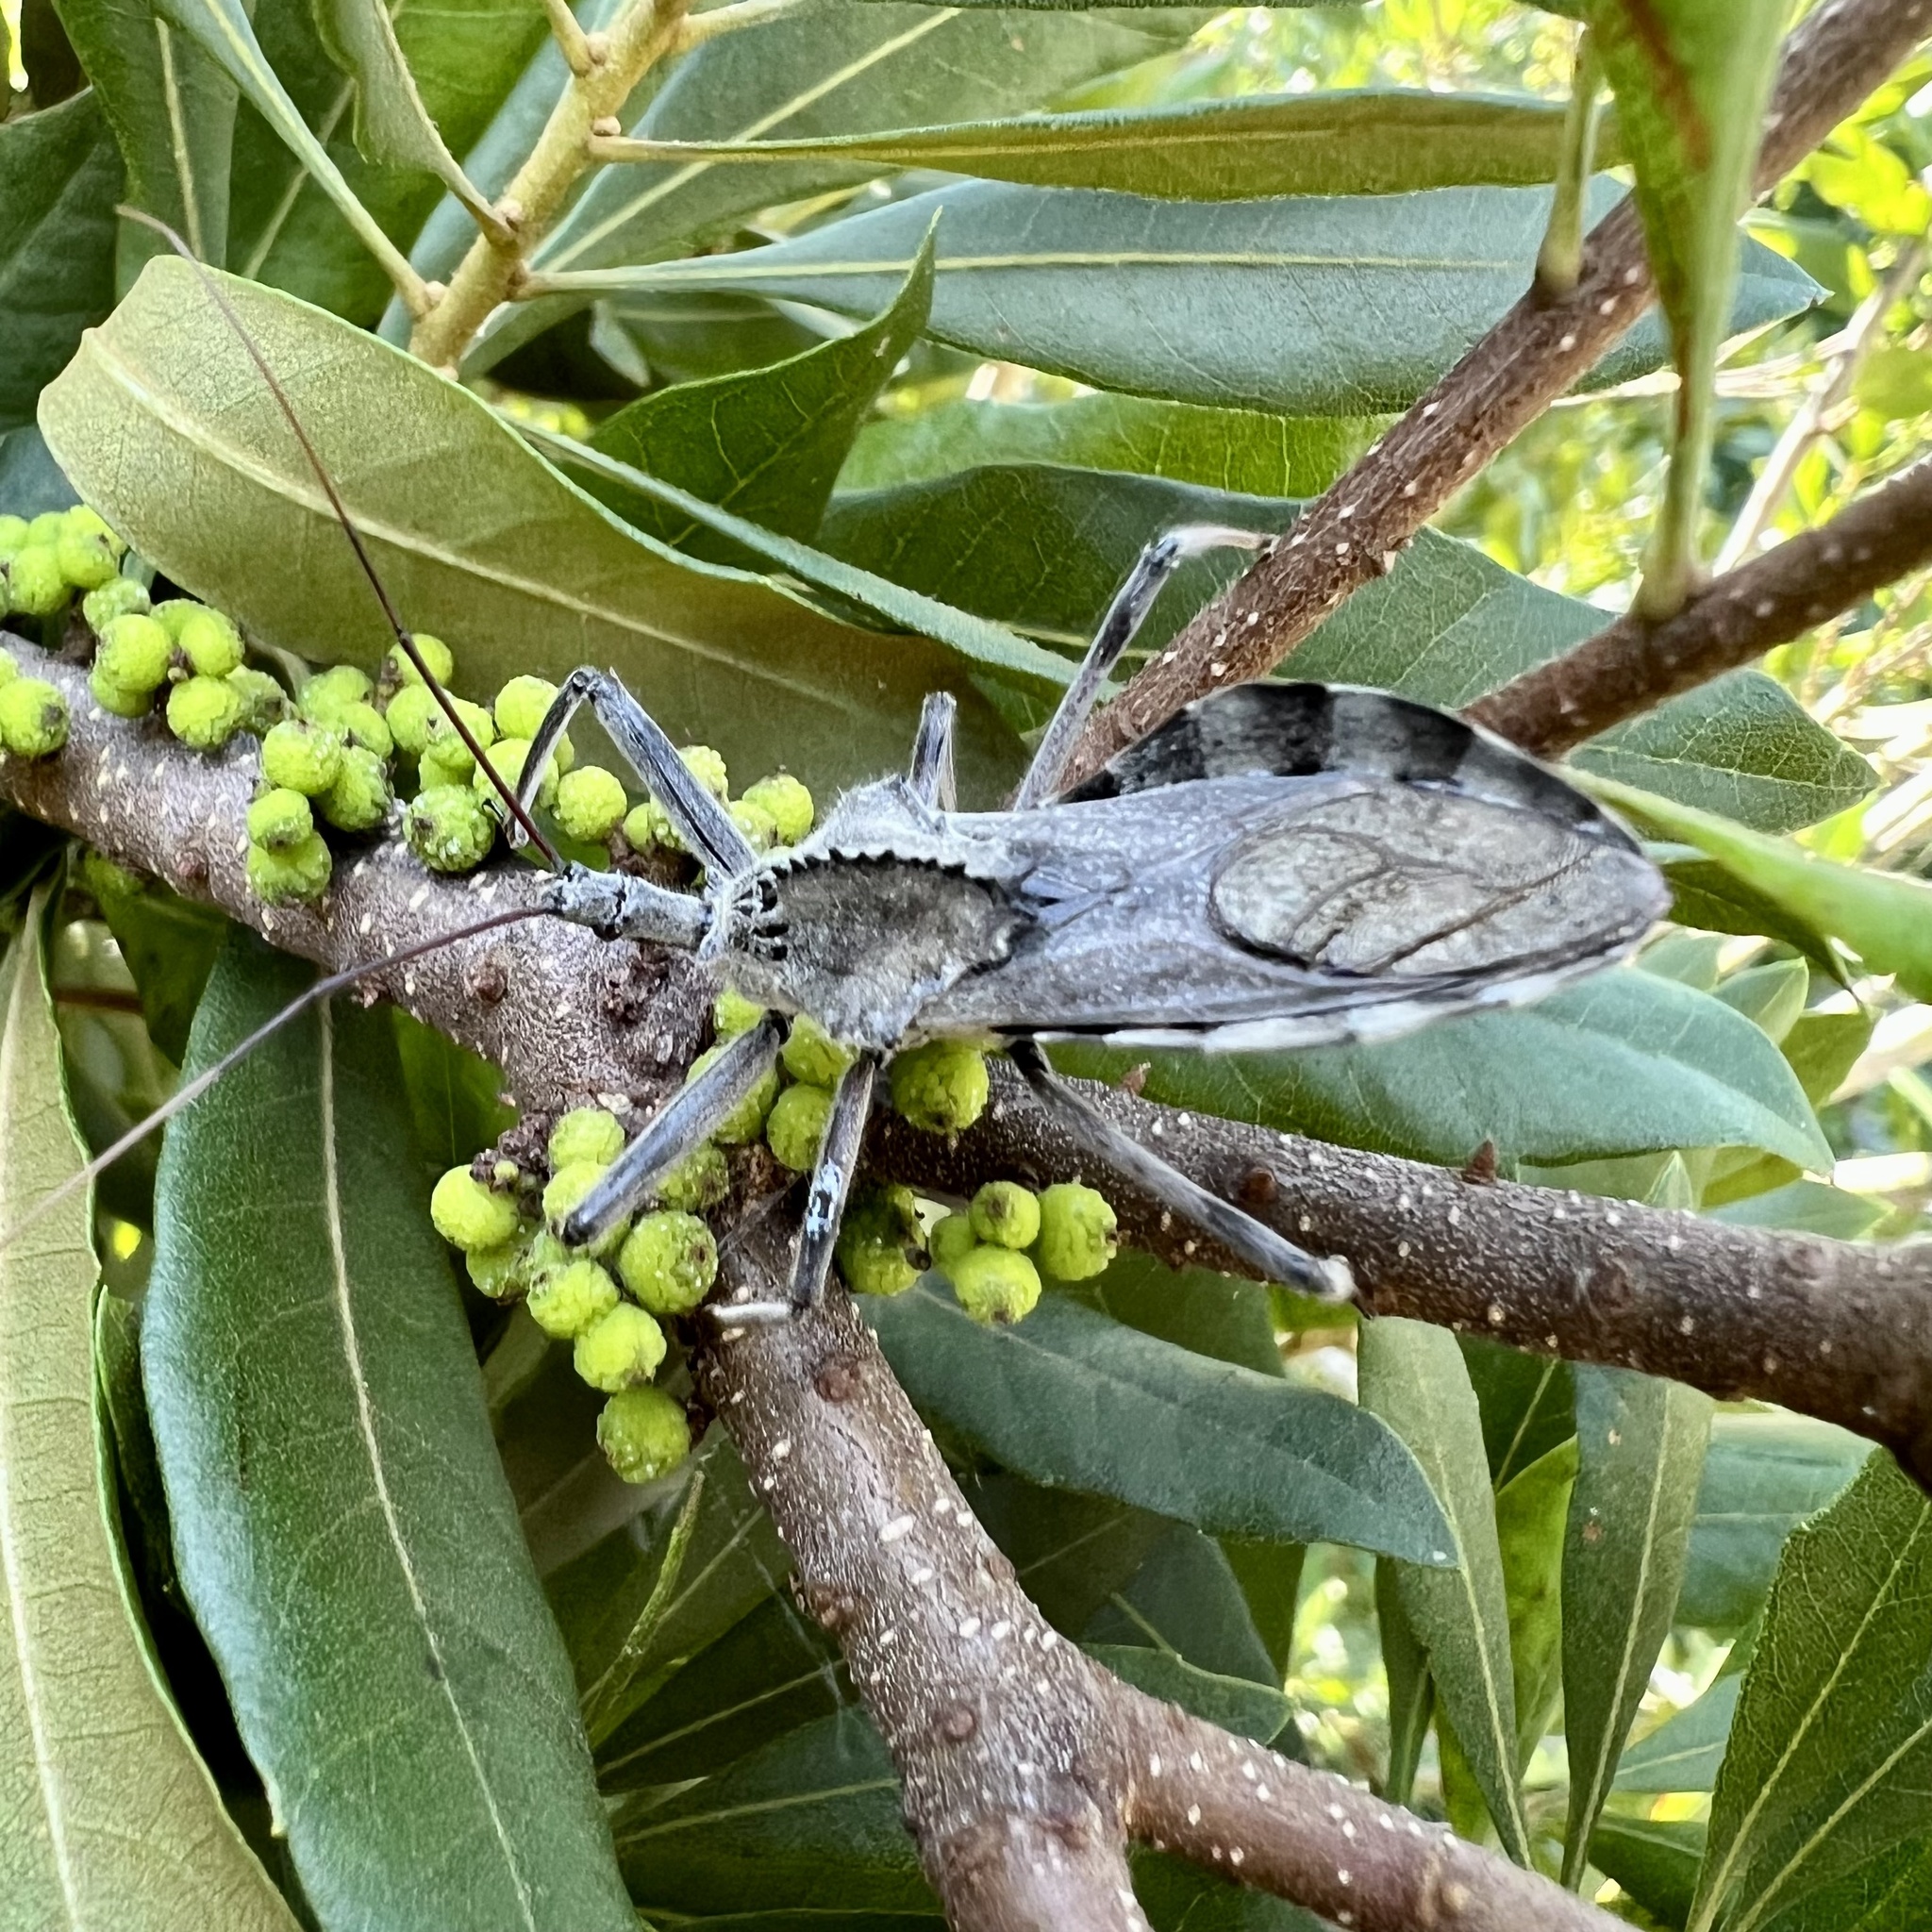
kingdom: Animalia
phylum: Arthropoda
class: Insecta
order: Hemiptera
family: Reduviidae
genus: Arilus
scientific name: Arilus cristatus
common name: North american wheel bug
